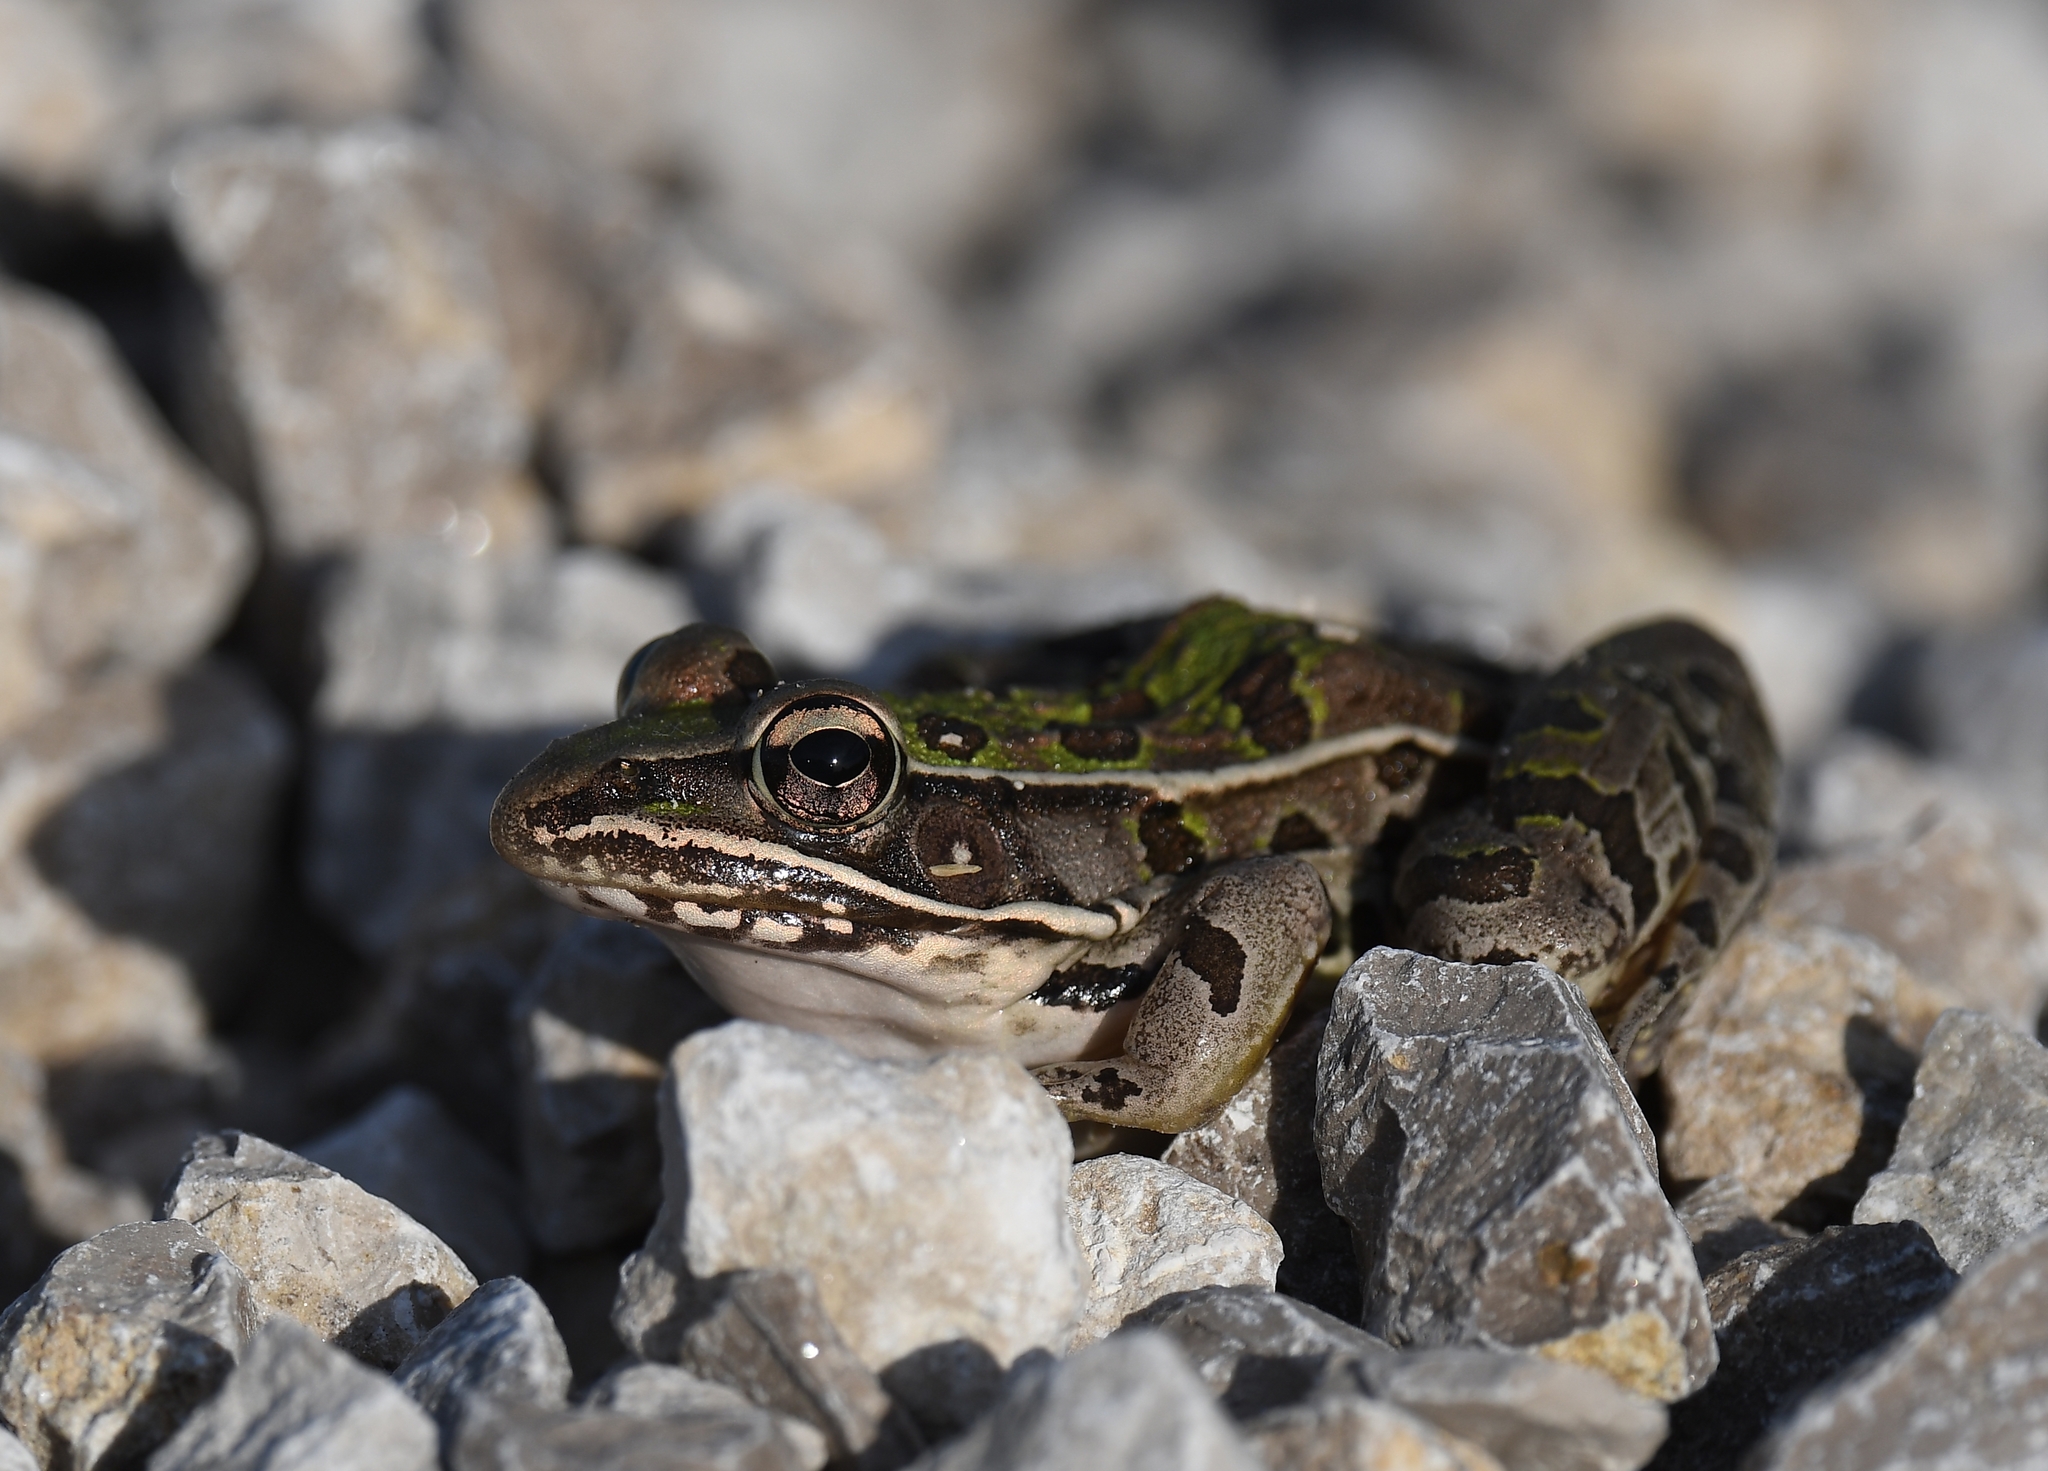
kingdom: Animalia
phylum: Chordata
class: Amphibia
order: Anura
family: Ranidae
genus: Lithobates
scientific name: Lithobates sphenocephalus
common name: Southern leopard frog
